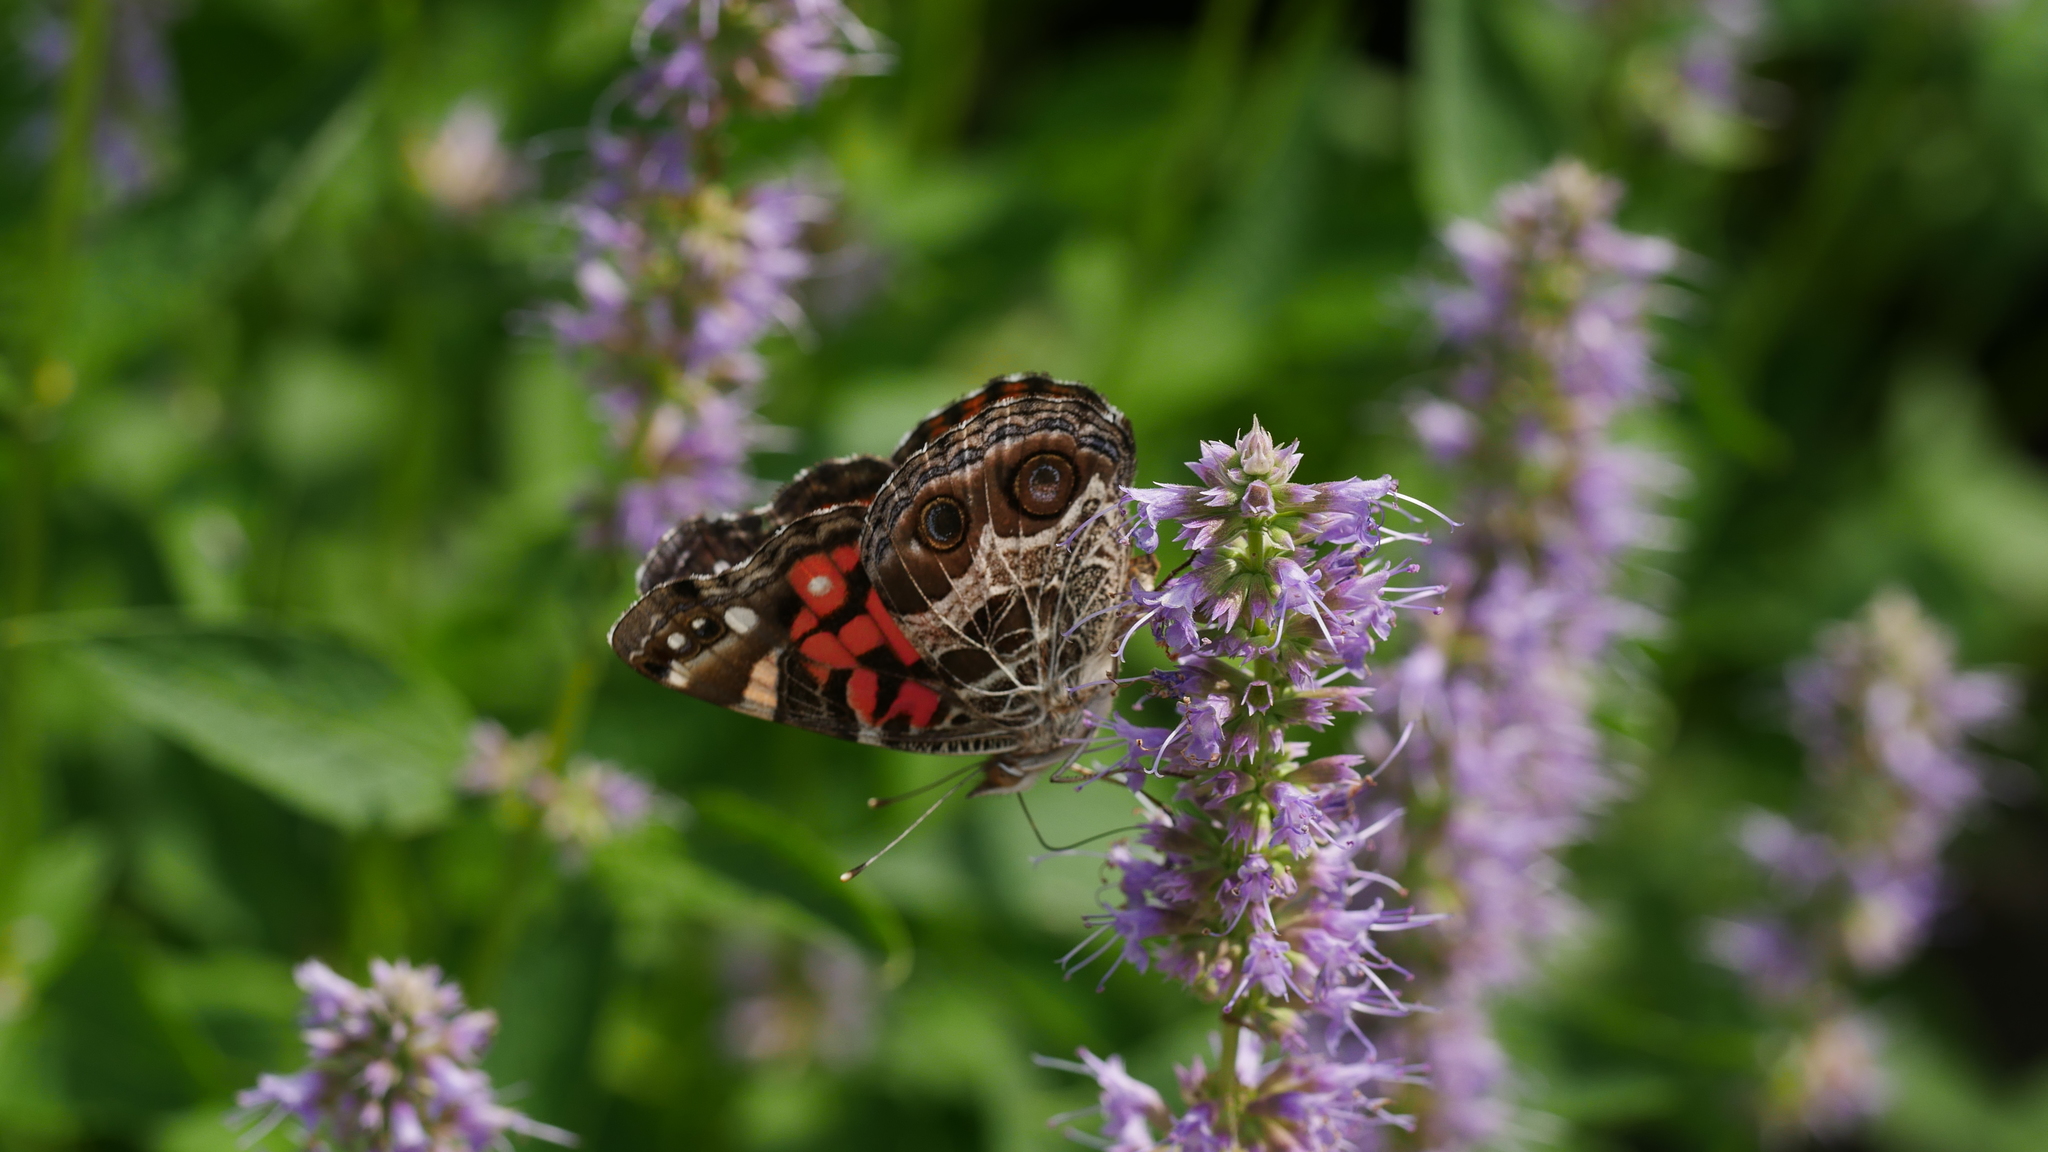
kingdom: Animalia
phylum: Arthropoda
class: Insecta
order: Lepidoptera
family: Nymphalidae
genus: Vanessa
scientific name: Vanessa virginiensis
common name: American lady
